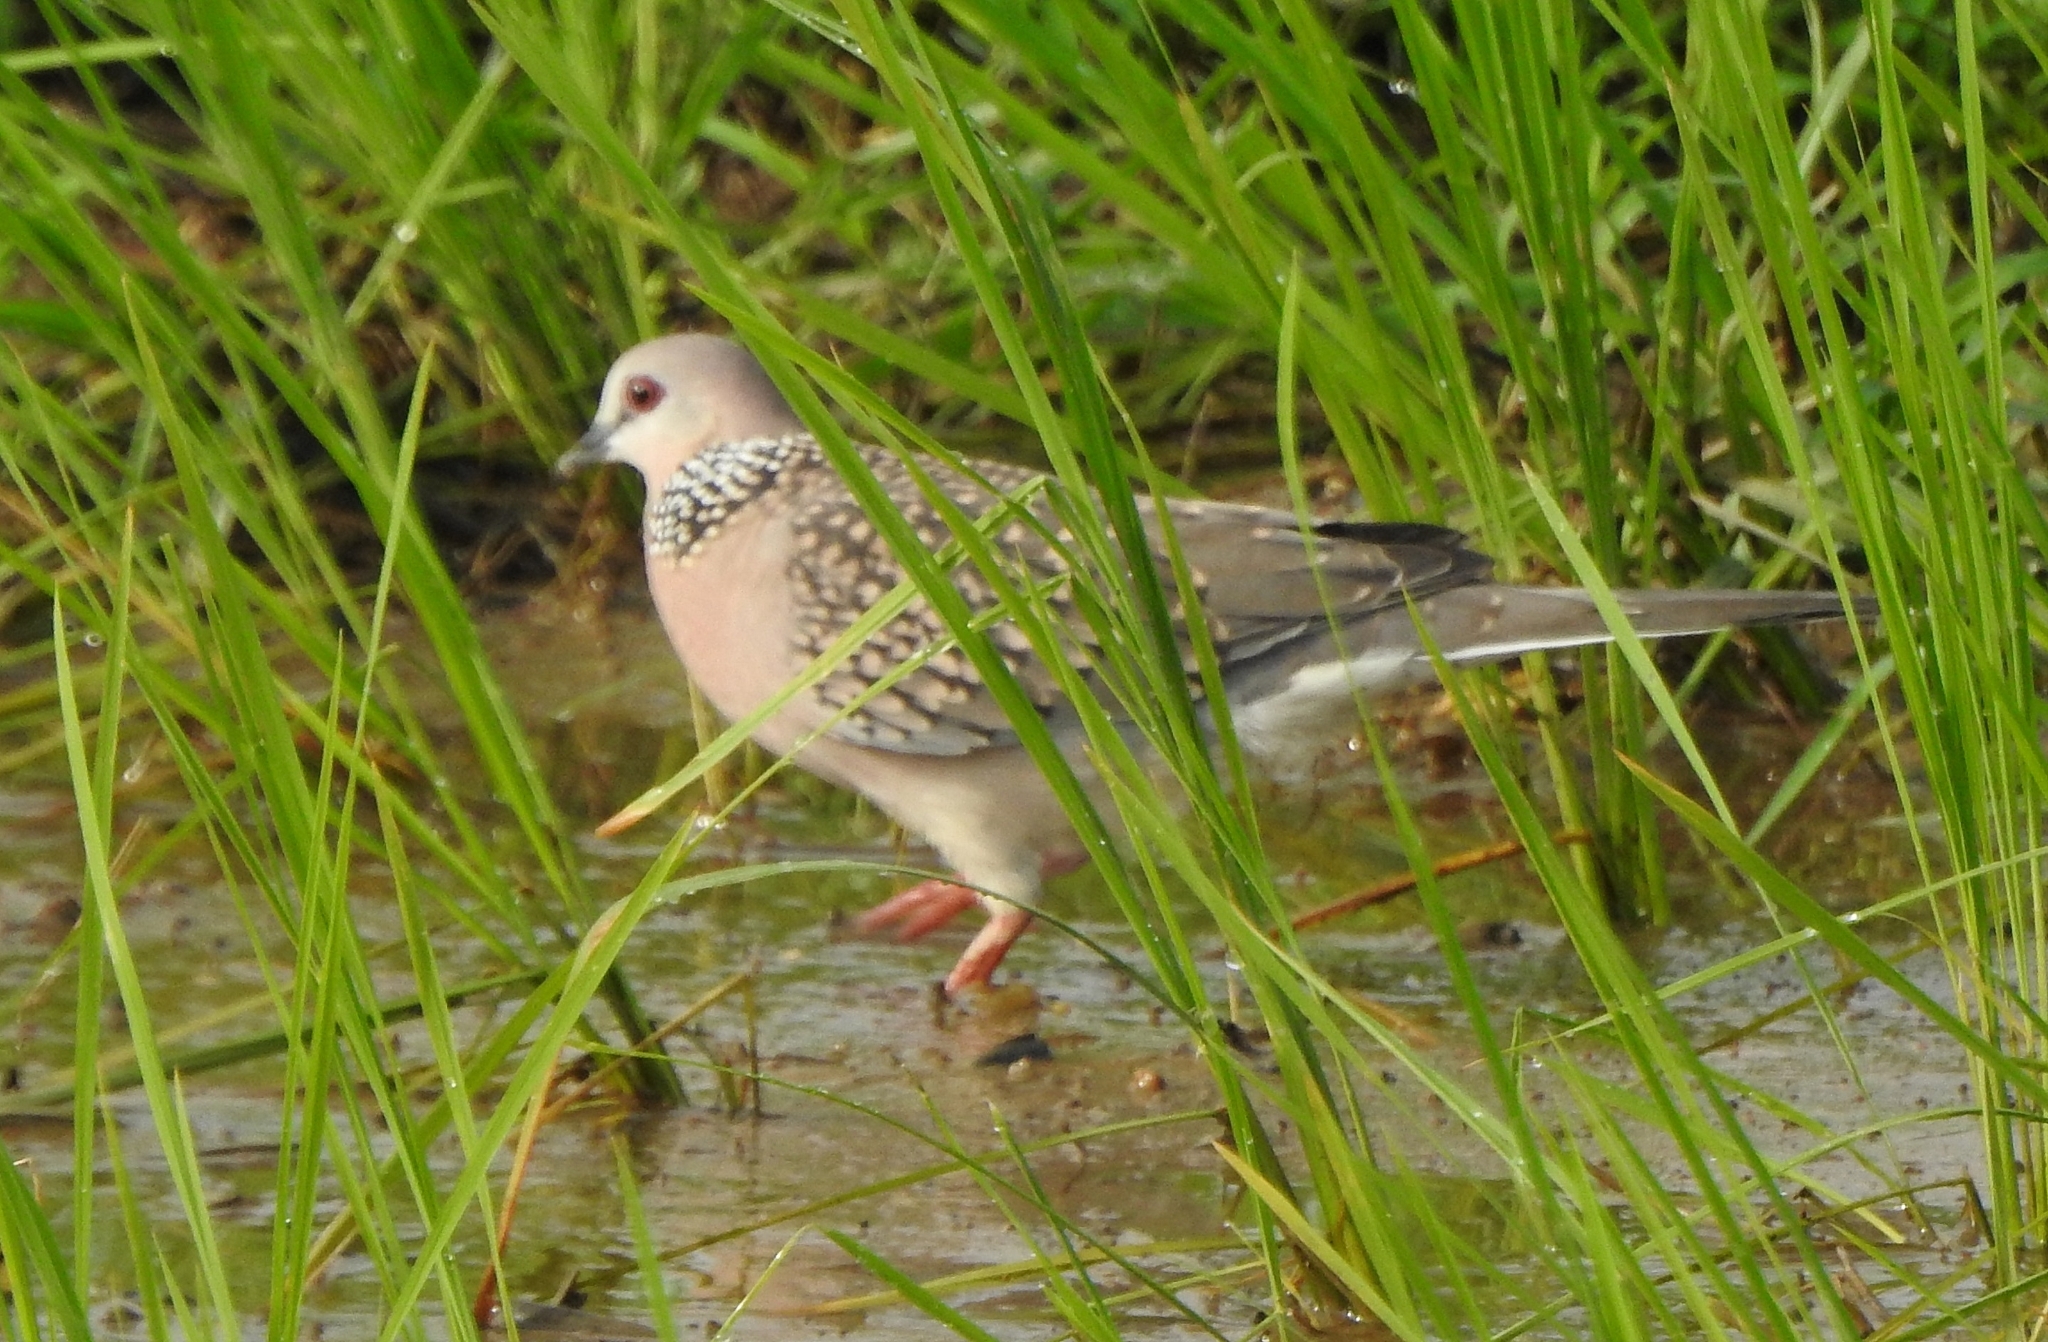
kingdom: Animalia
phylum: Chordata
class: Aves
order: Columbiformes
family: Columbidae
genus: Spilopelia
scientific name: Spilopelia chinensis
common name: Spotted dove
